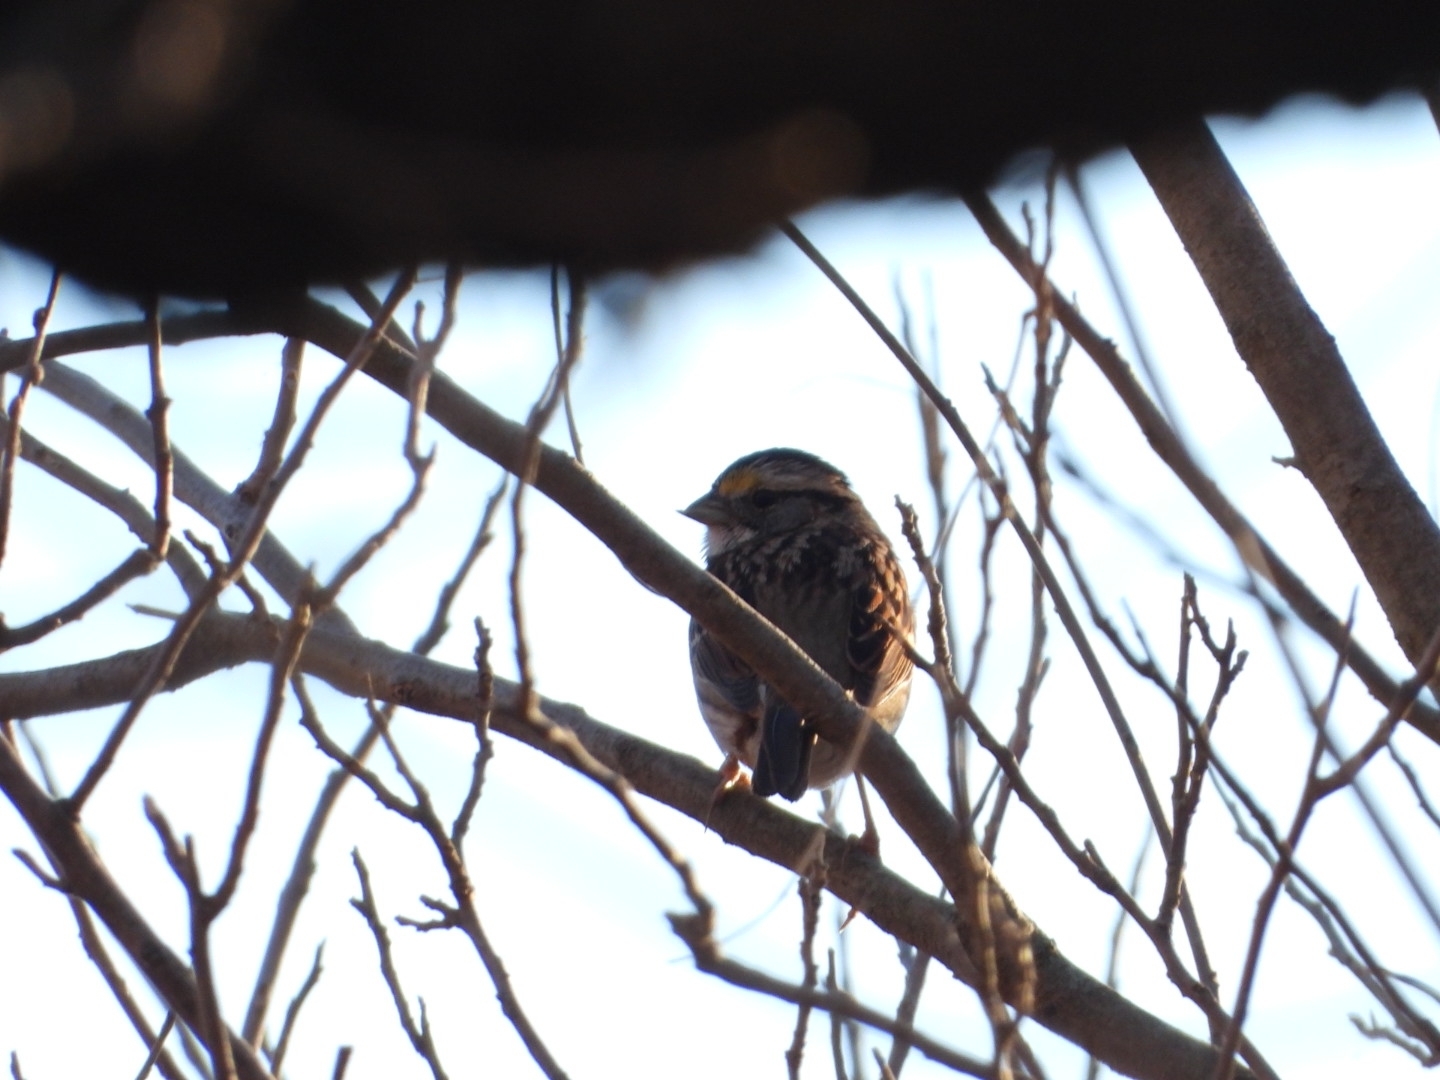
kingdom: Animalia
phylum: Chordata
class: Aves
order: Passeriformes
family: Passerellidae
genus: Zonotrichia
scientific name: Zonotrichia albicollis
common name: White-throated sparrow
